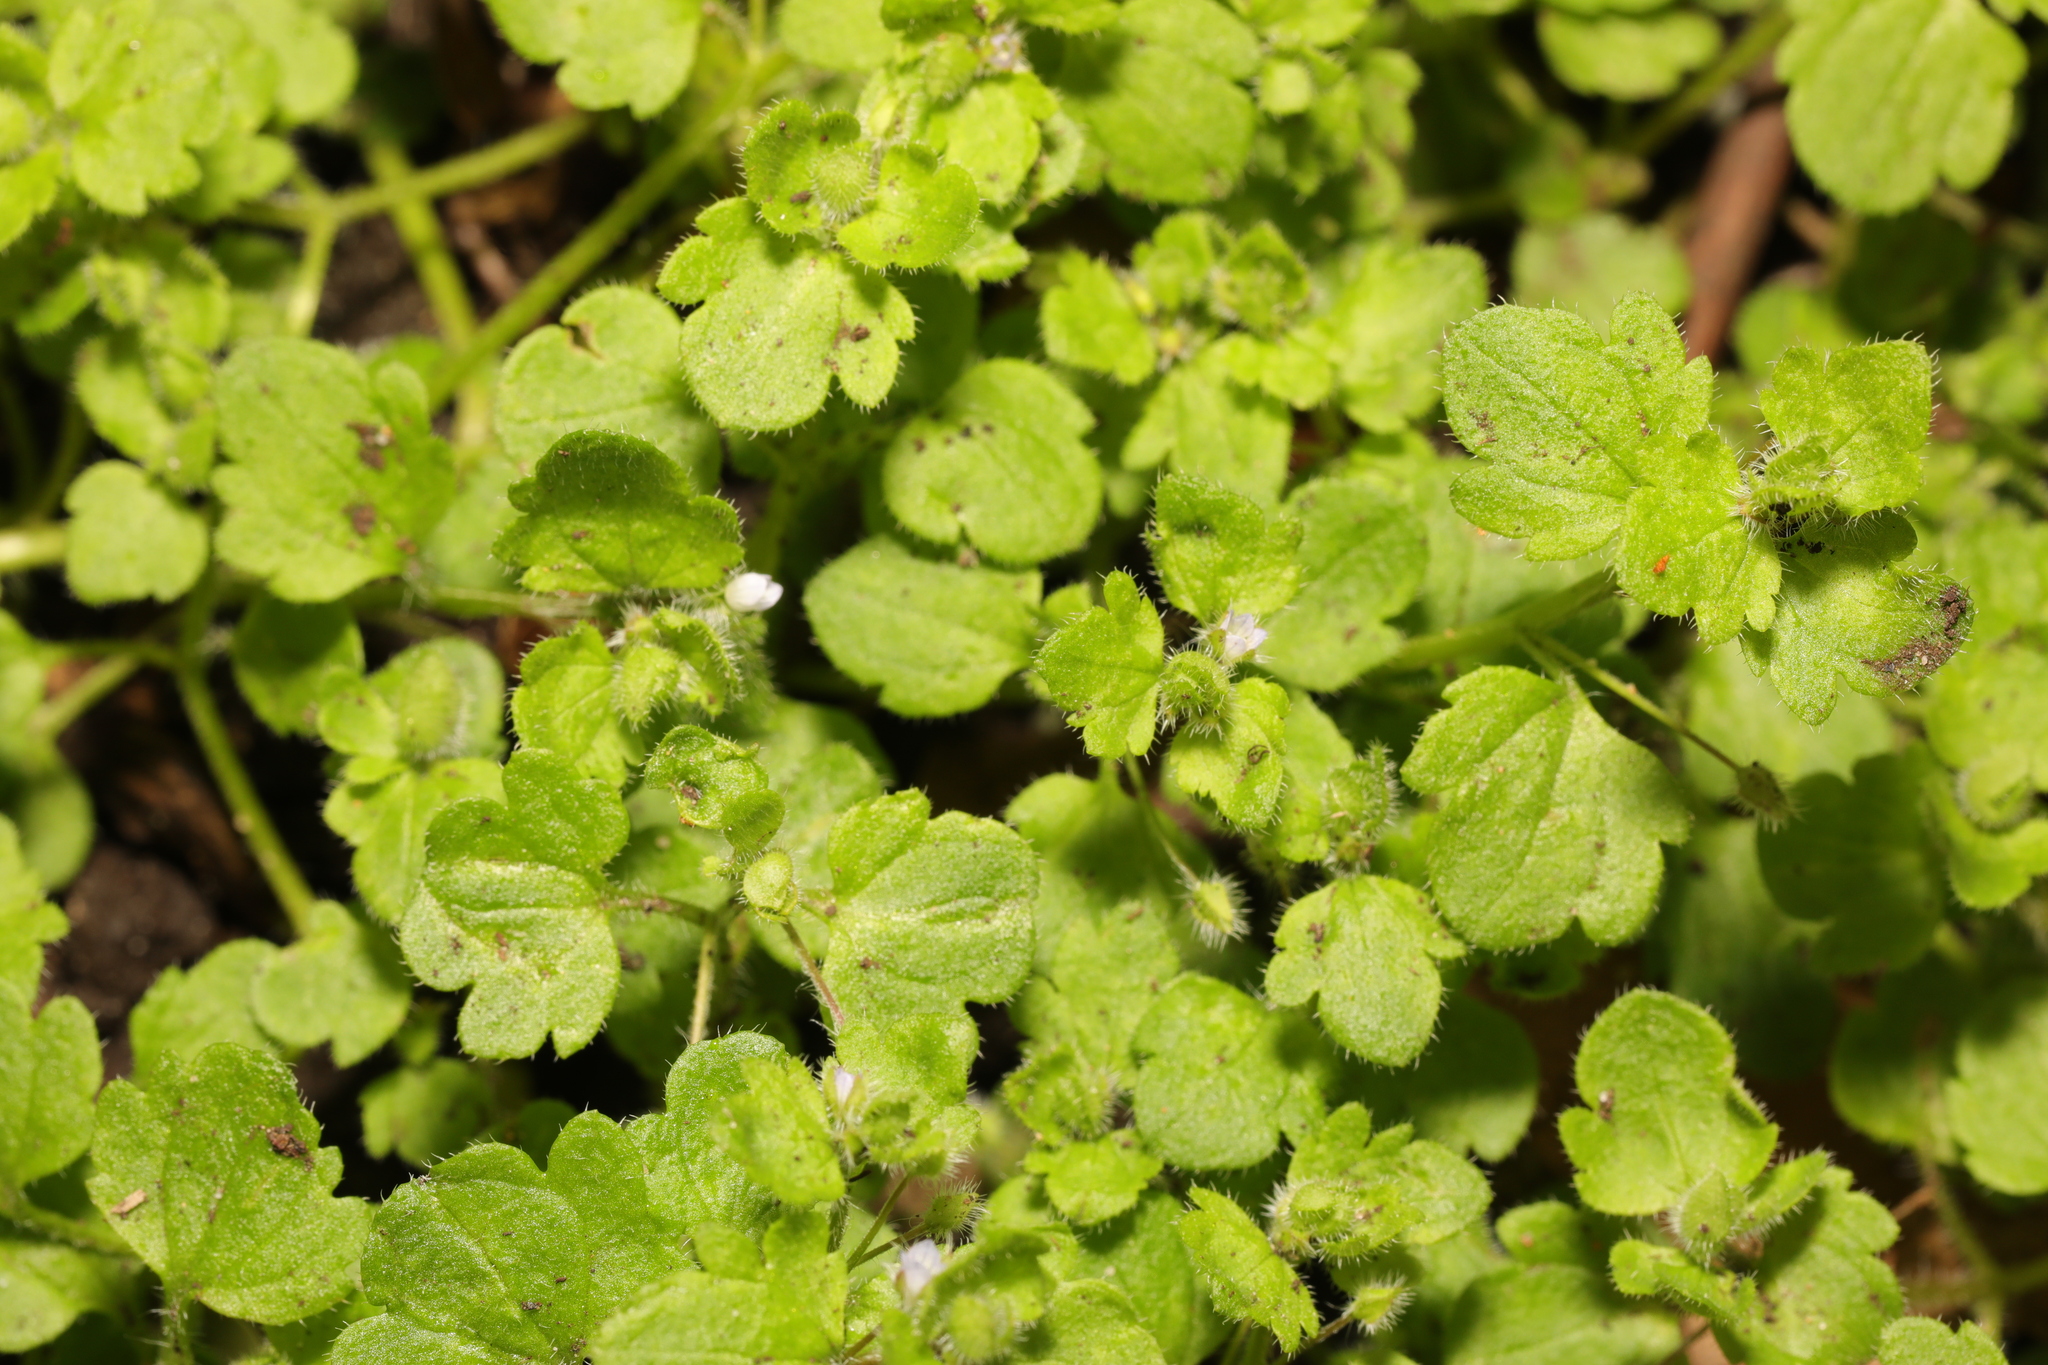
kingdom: Plantae
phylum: Tracheophyta
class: Magnoliopsida
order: Lamiales
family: Plantaginaceae
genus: Veronica
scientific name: Veronica sublobata
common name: False ivy-leaved speedwell
